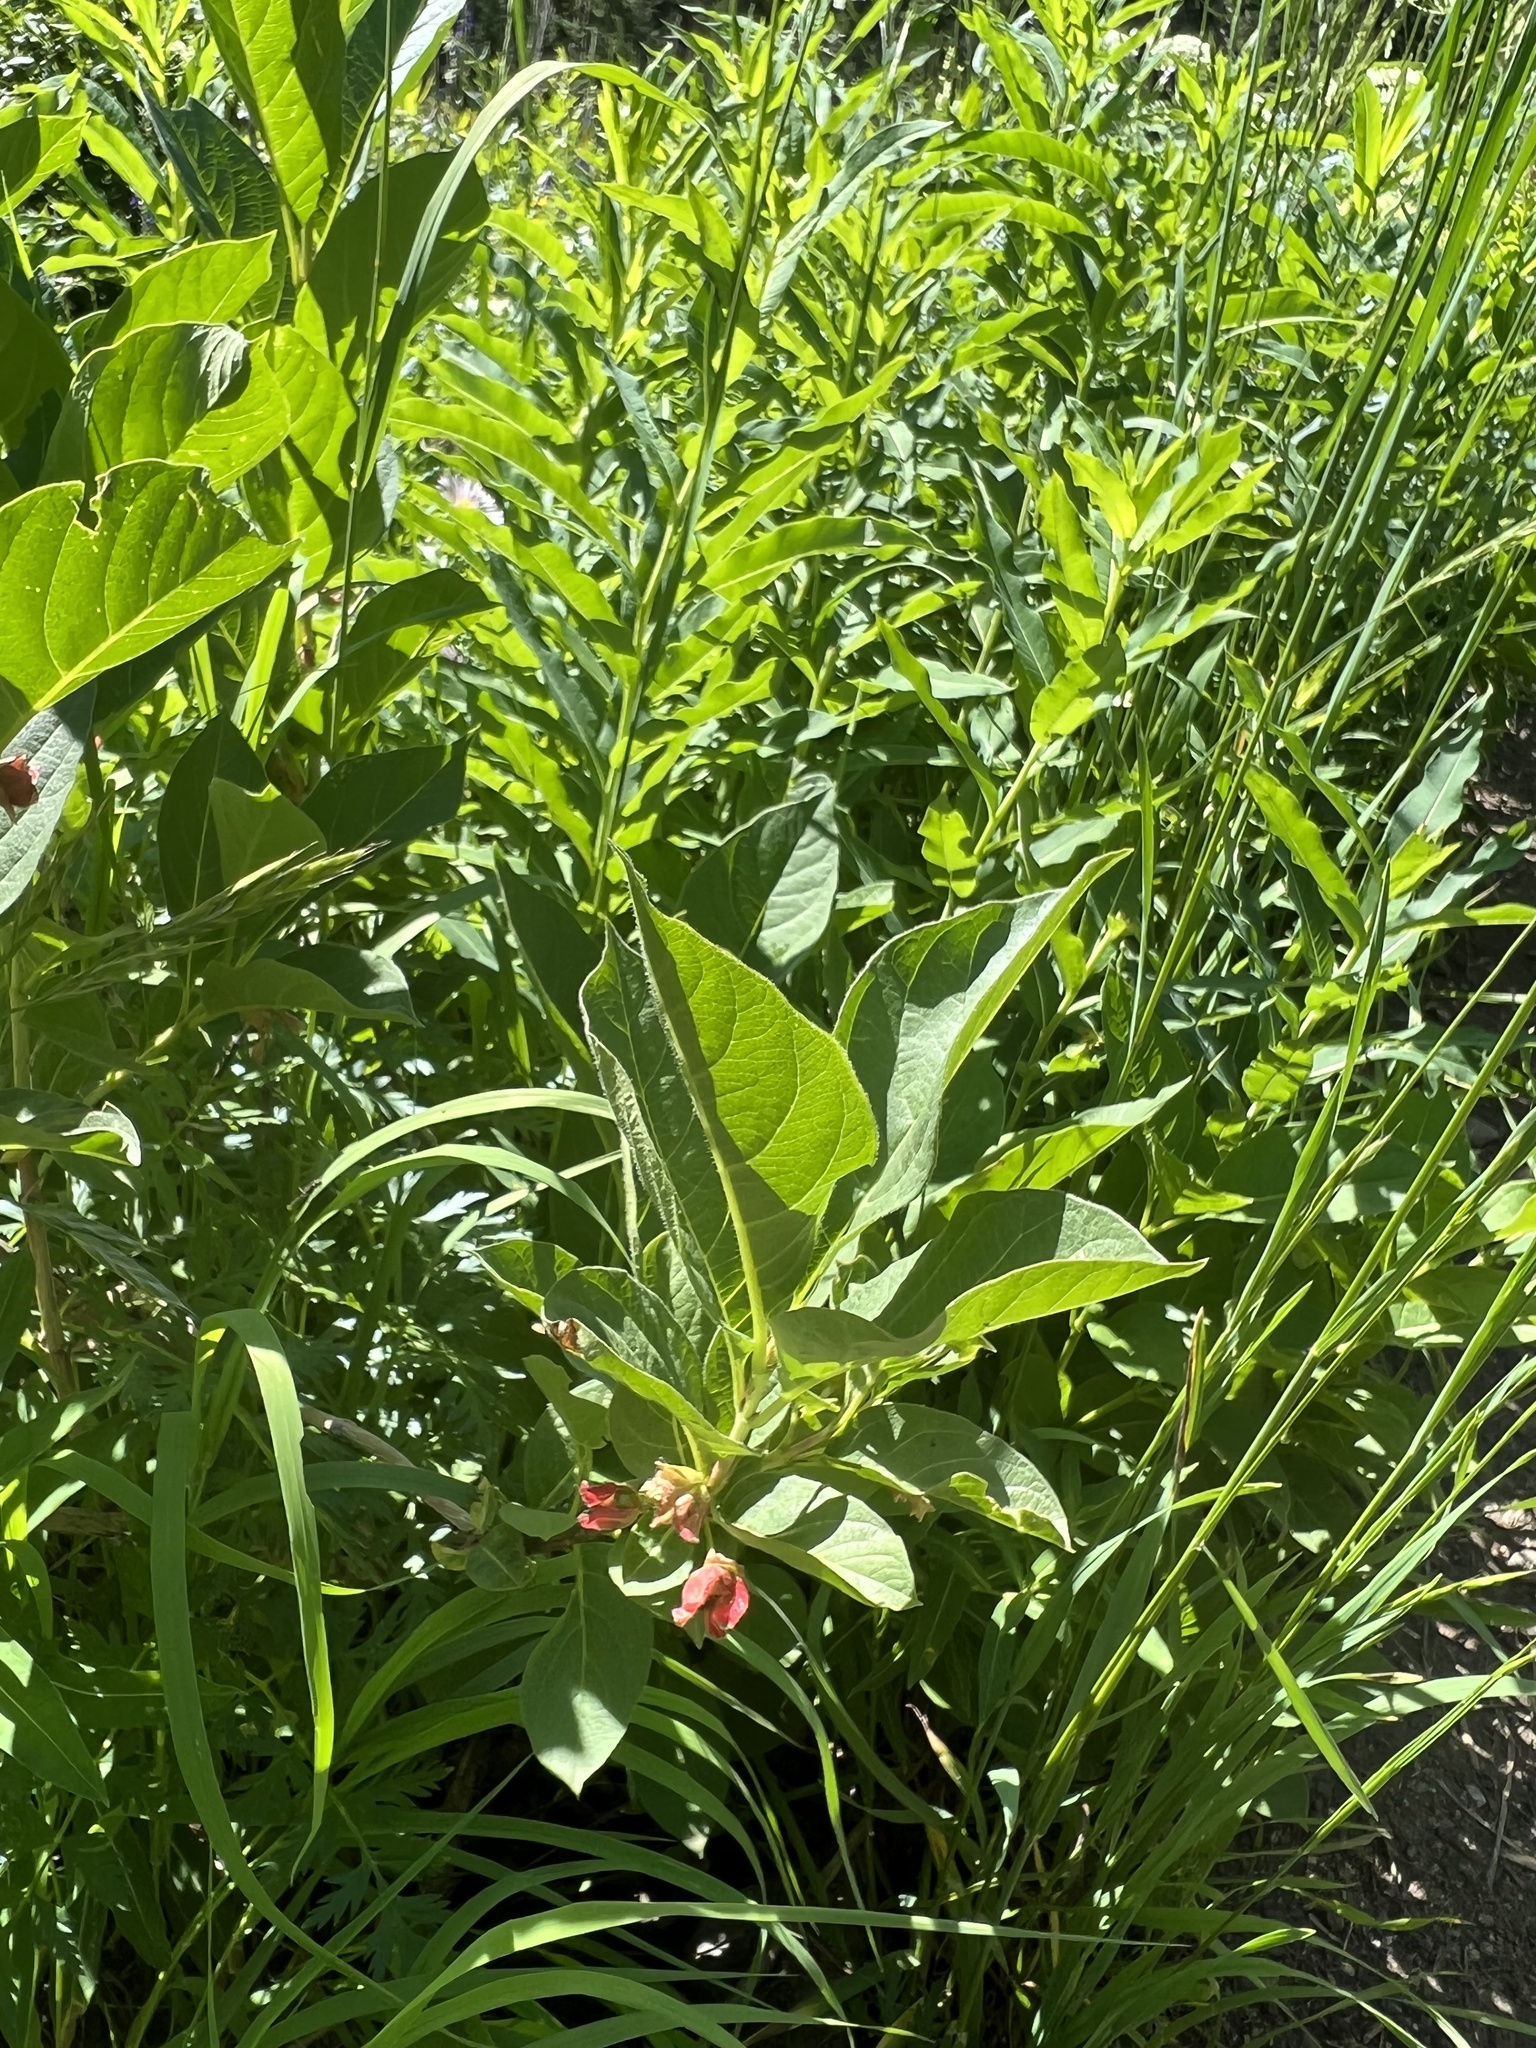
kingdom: Plantae
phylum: Tracheophyta
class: Magnoliopsida
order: Dipsacales
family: Caprifoliaceae
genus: Lonicera
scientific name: Lonicera involucrata
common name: Californian honeysuckle
